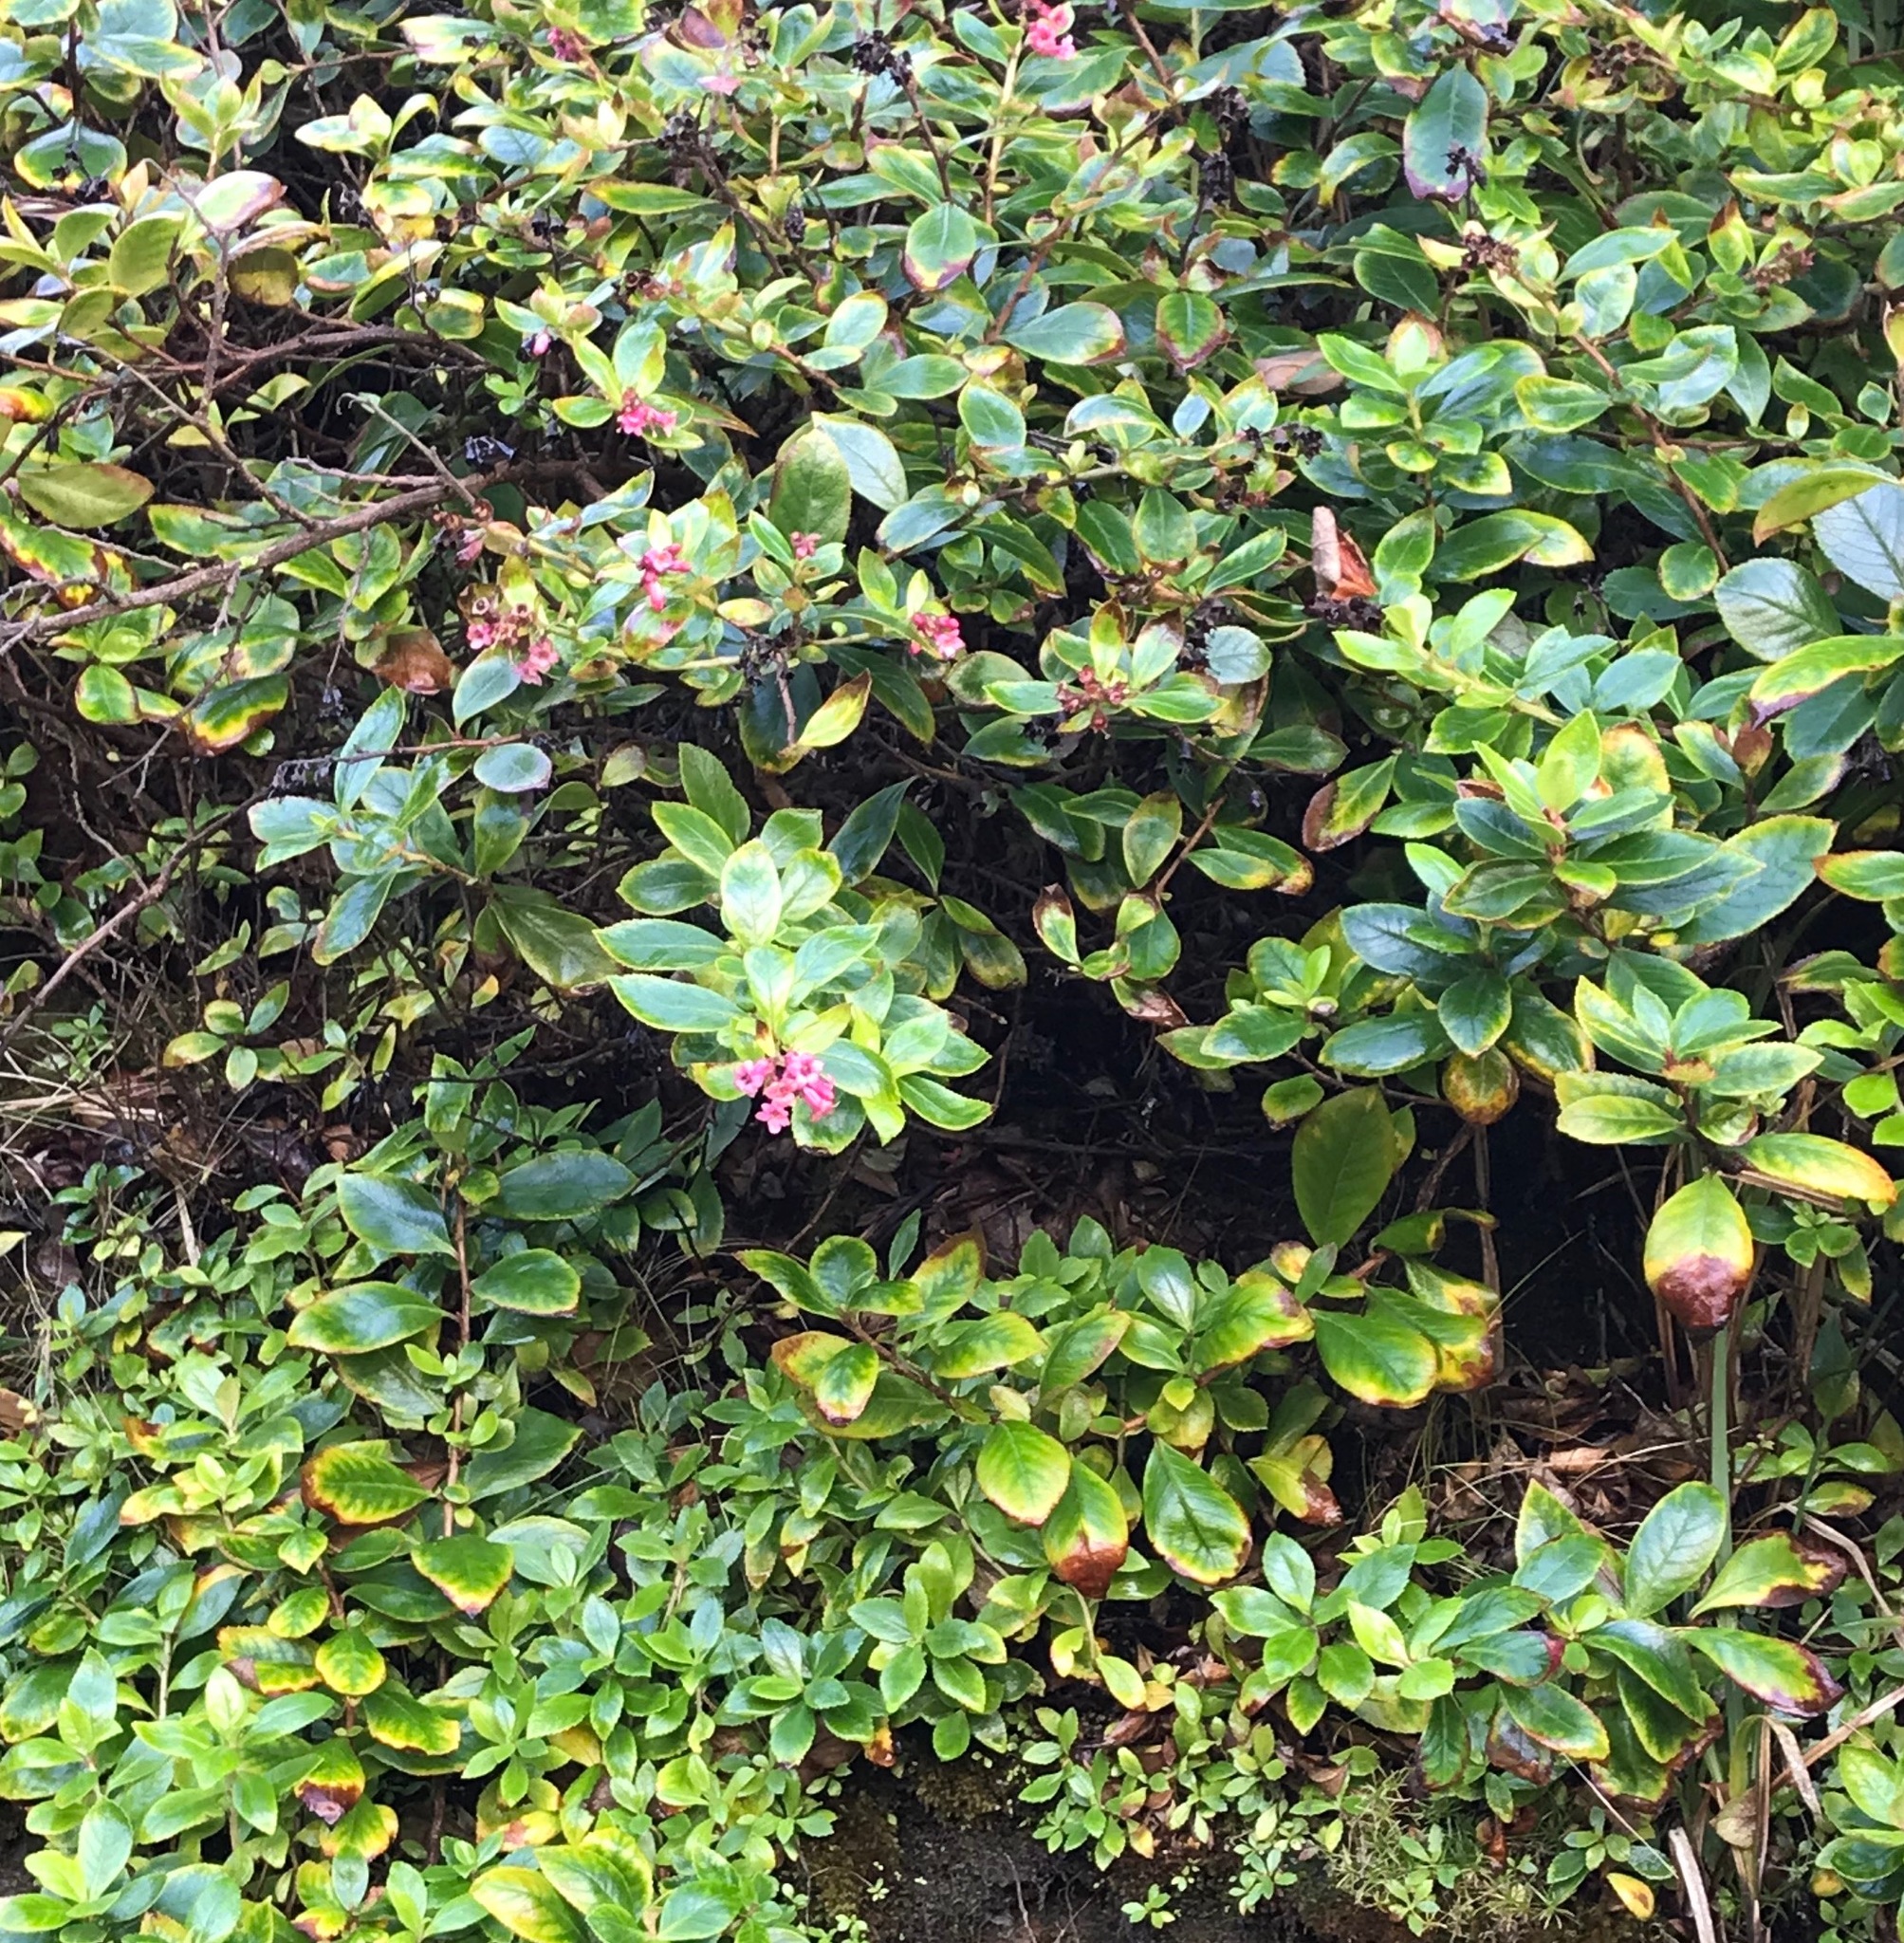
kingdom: Plantae
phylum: Tracheophyta
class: Magnoliopsida
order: Escalloniales
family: Escalloniaceae
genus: Escallonia
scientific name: Escallonia rubra
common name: Redclaws
